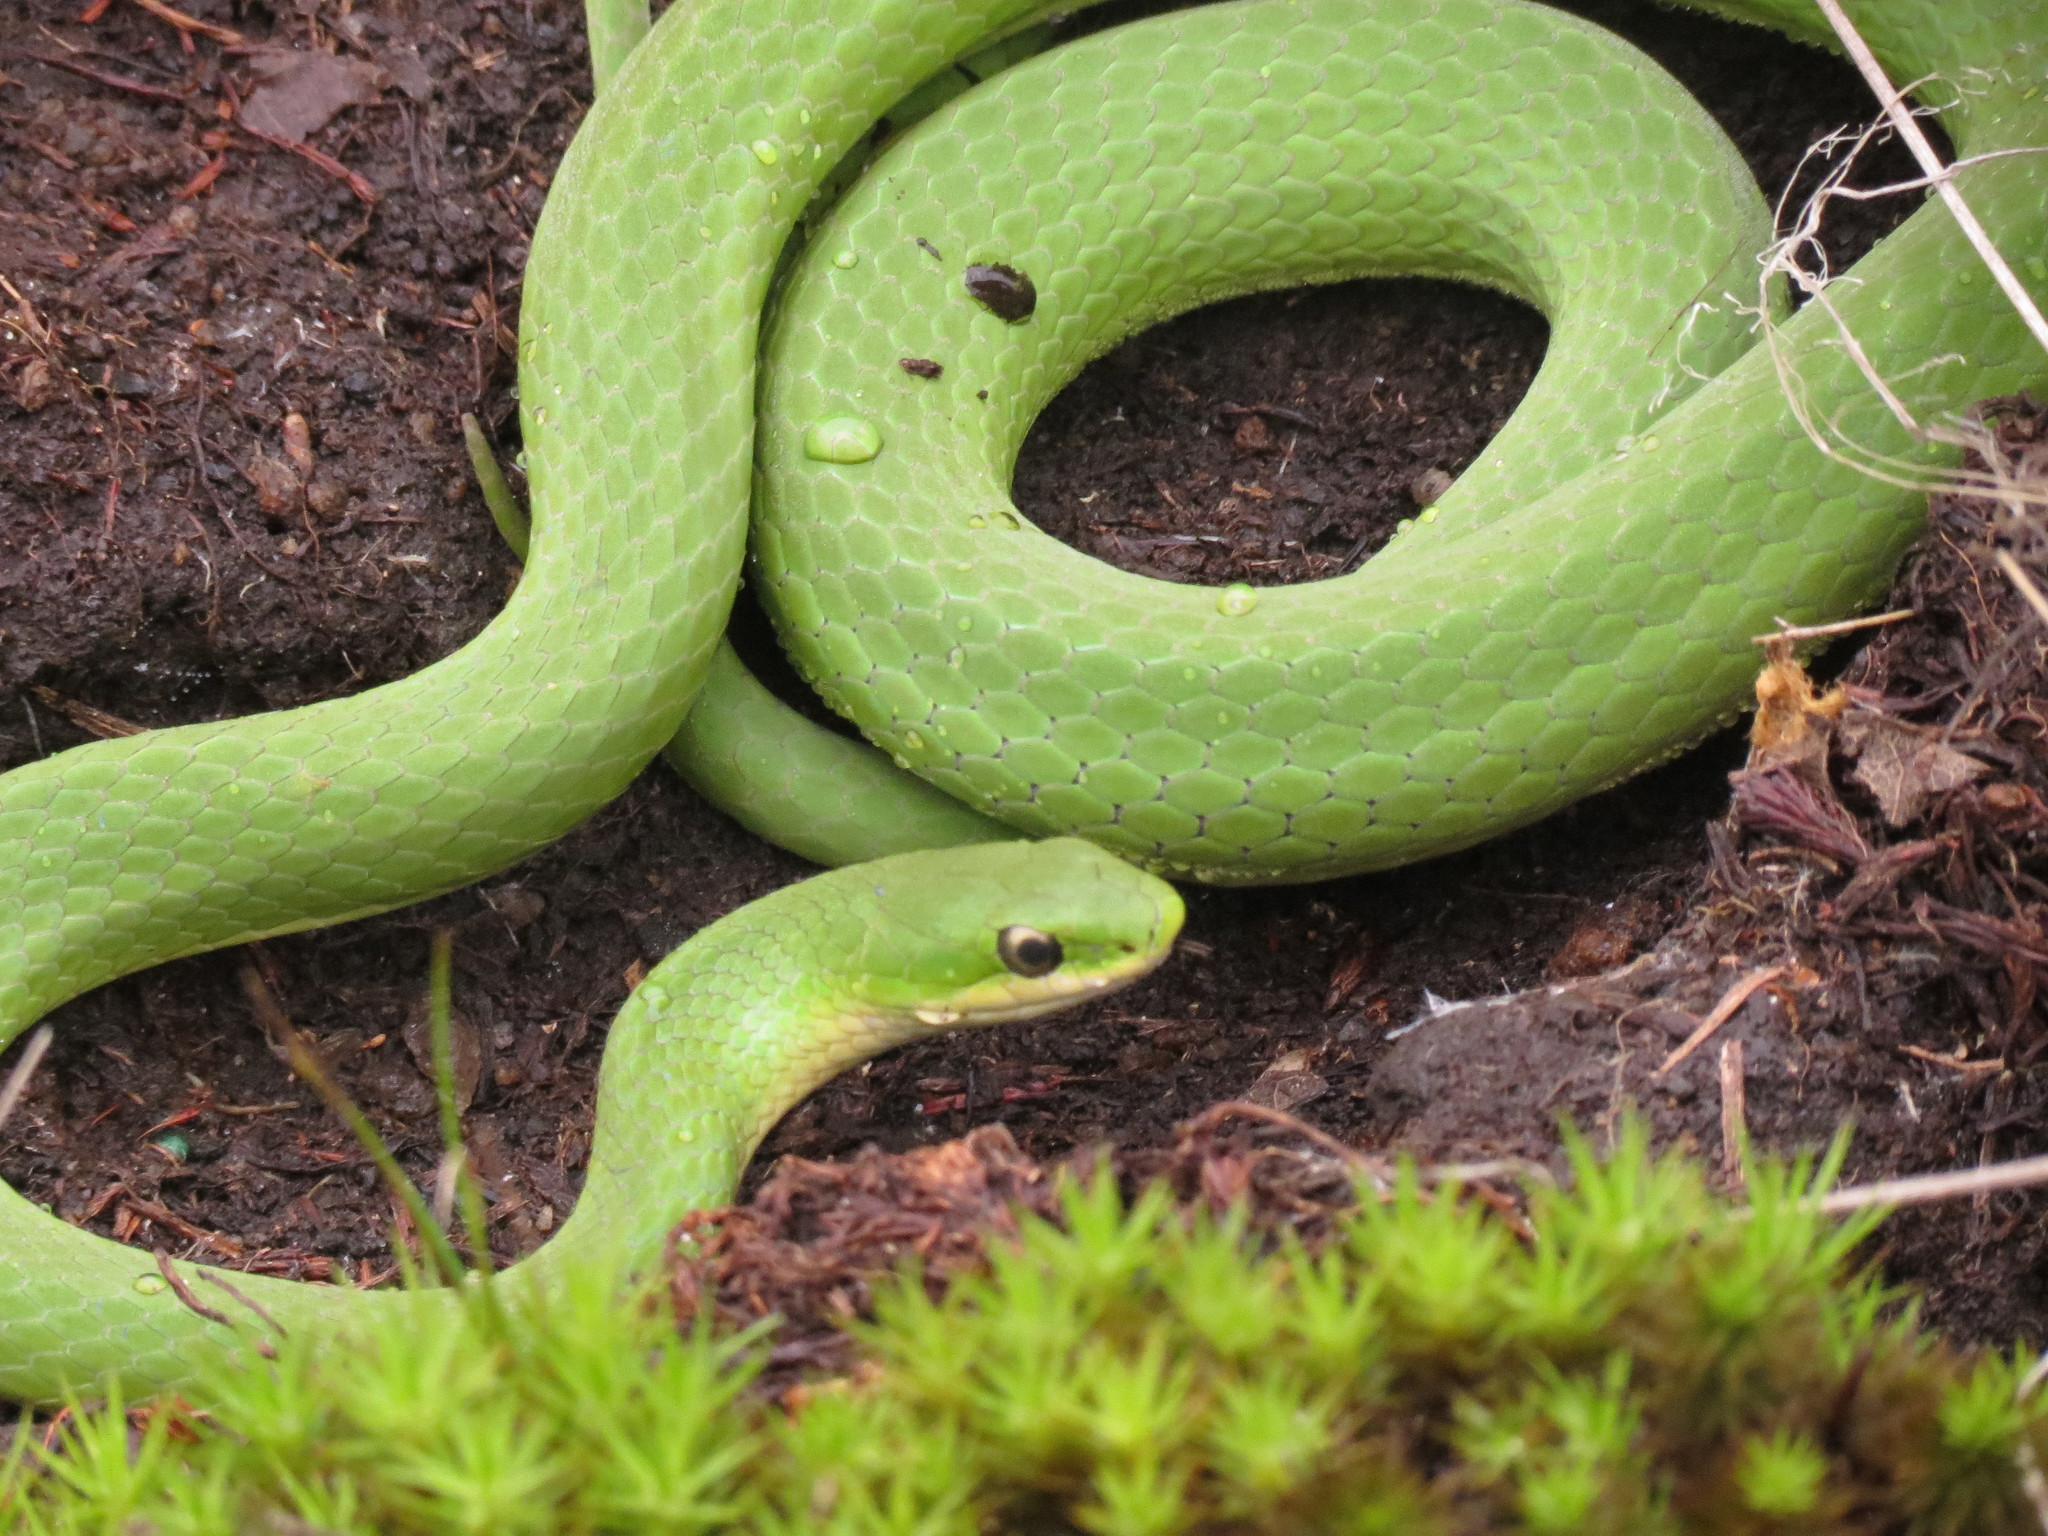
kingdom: Animalia
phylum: Chordata
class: Squamata
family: Colubridae
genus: Opheodrys
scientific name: Opheodrys vernalis
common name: Smooth green snake
